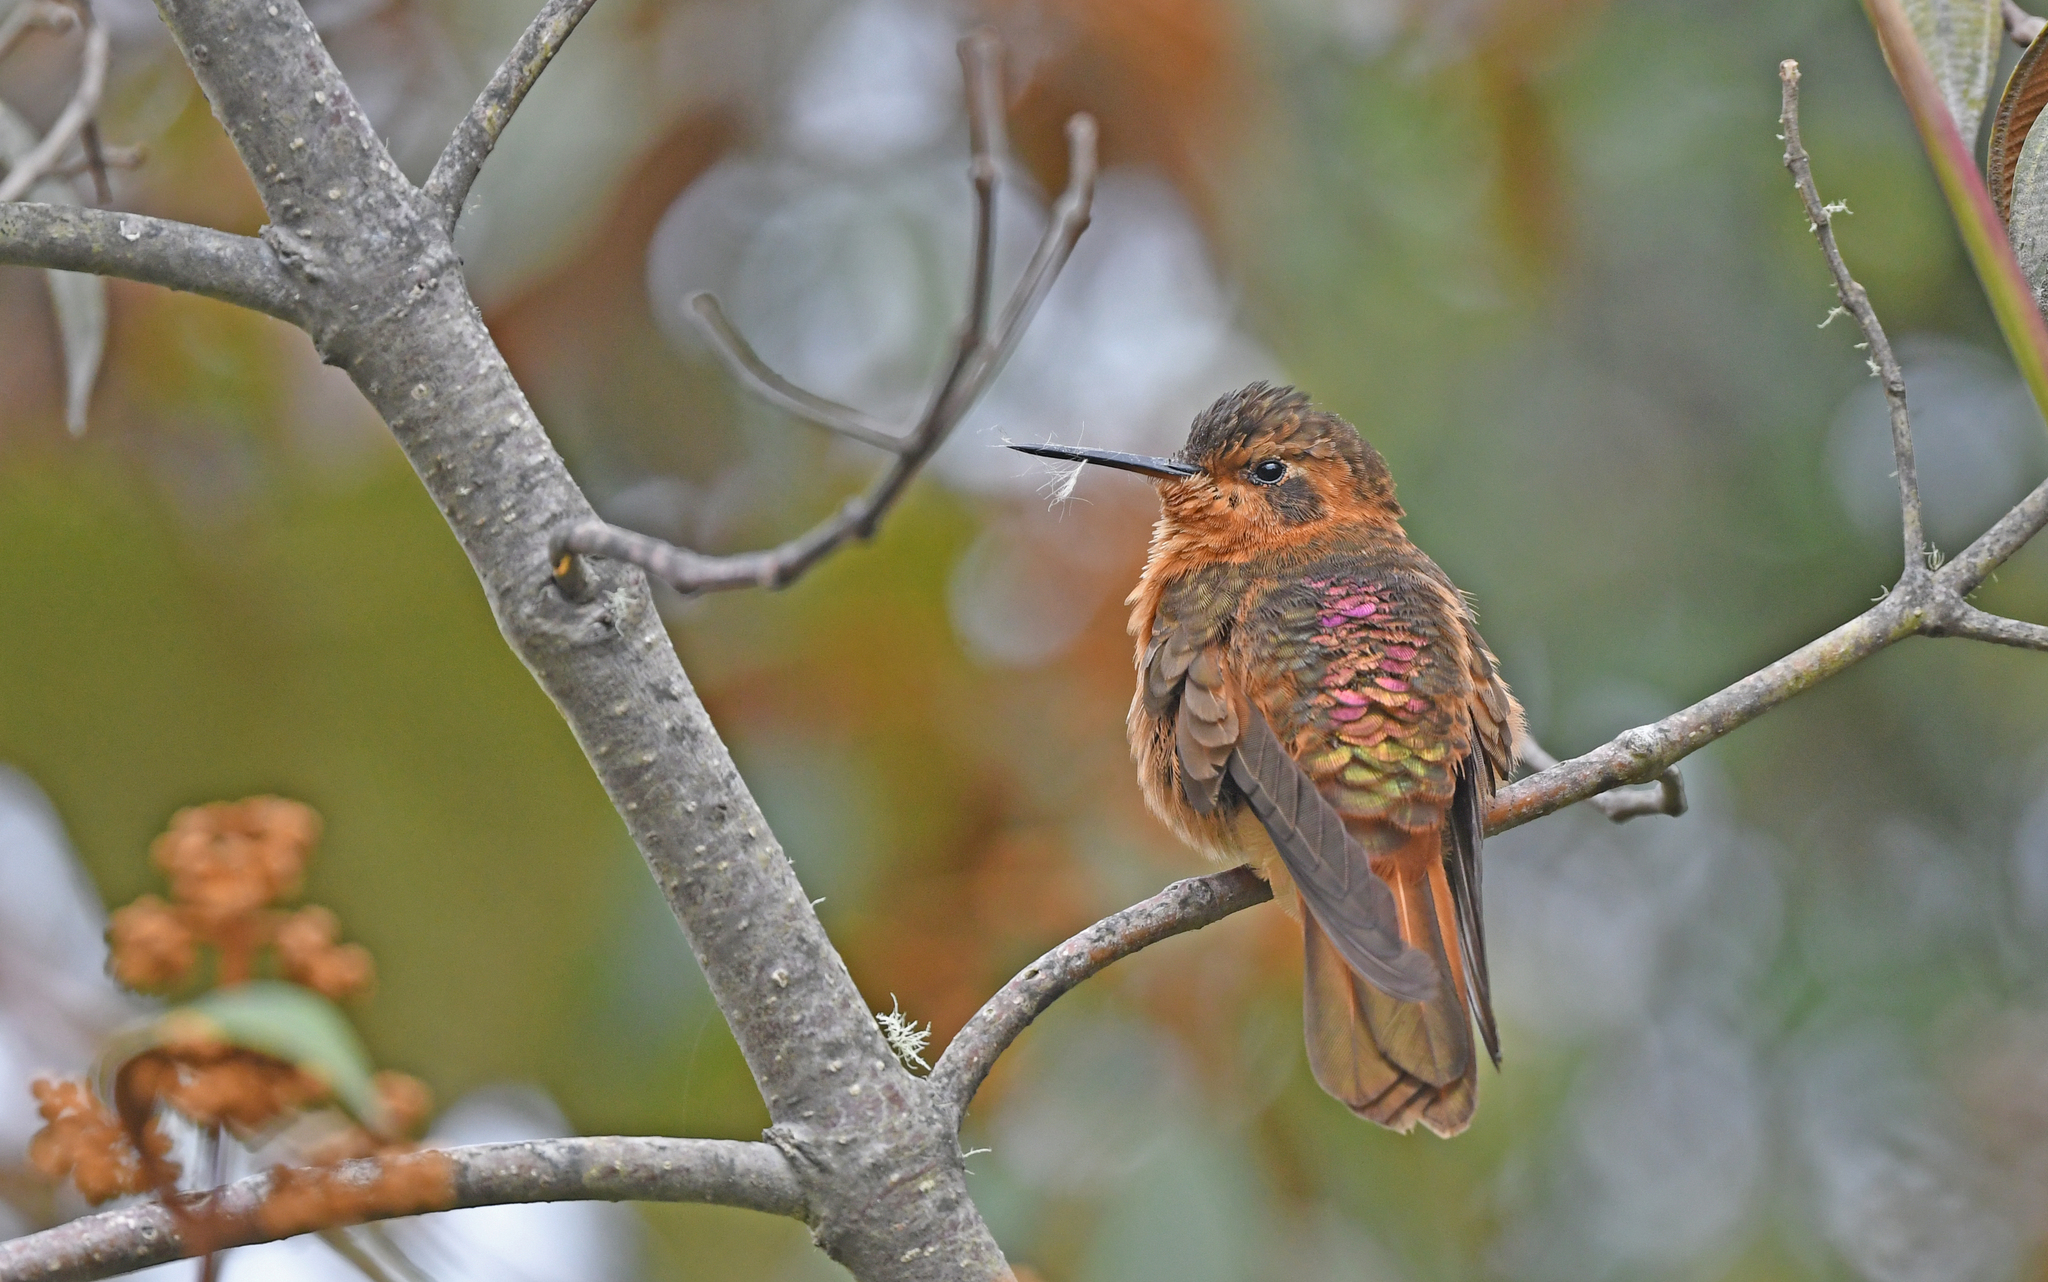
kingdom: Animalia
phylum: Chordata
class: Aves
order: Apodiformes
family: Trochilidae
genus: Aglaeactis
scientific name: Aglaeactis cupripennis
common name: Shining sunbeam
